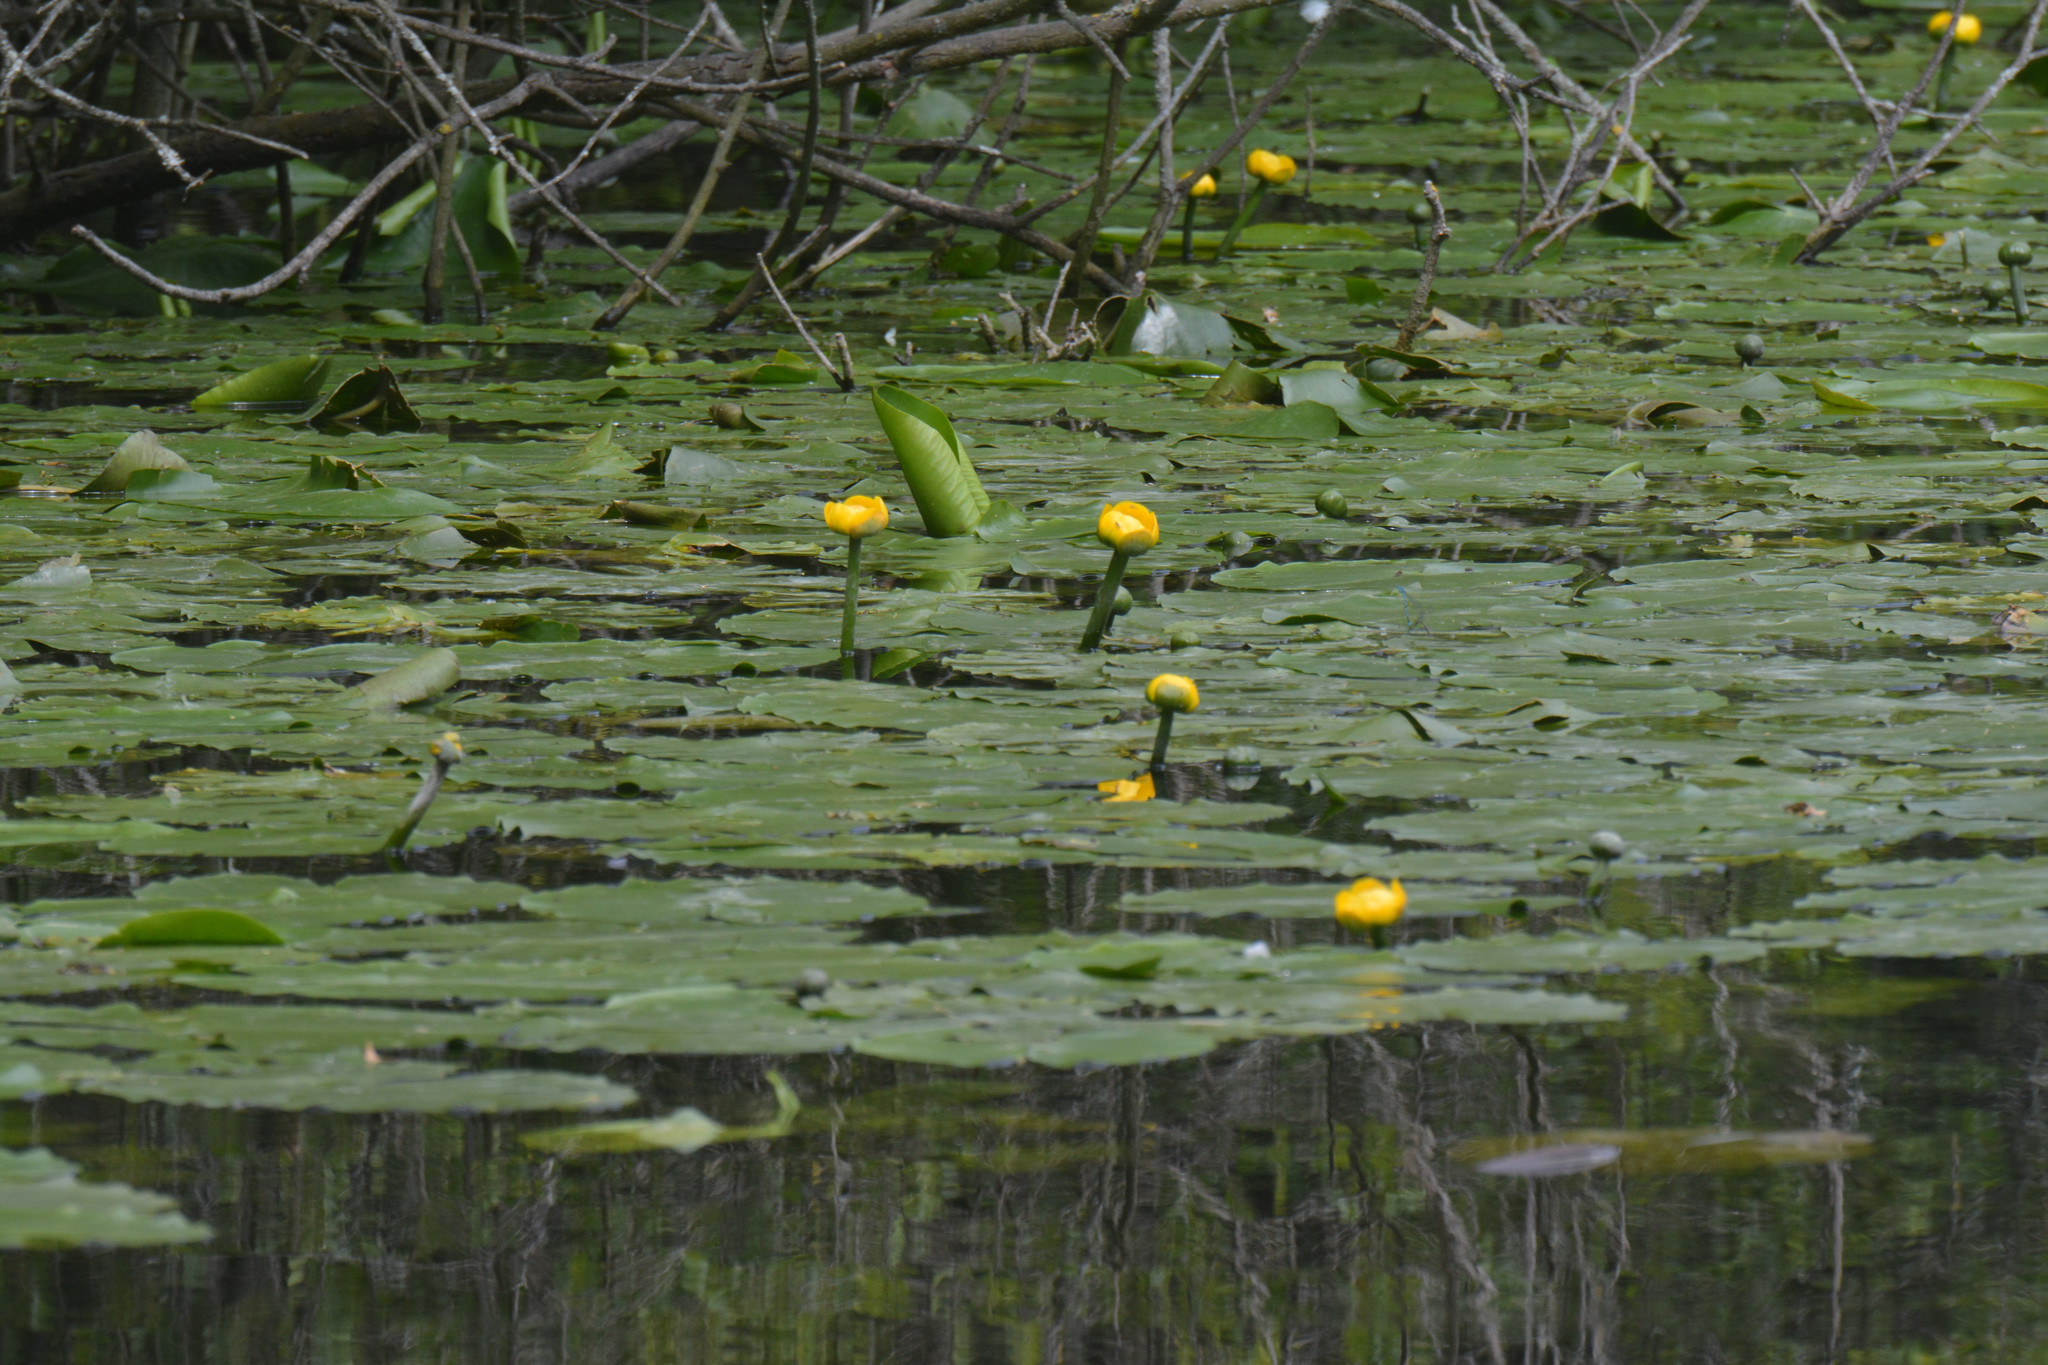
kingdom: Plantae
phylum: Tracheophyta
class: Magnoliopsida
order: Nymphaeales
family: Nymphaeaceae
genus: Nuphar
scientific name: Nuphar lutea
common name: Yellow water-lily
